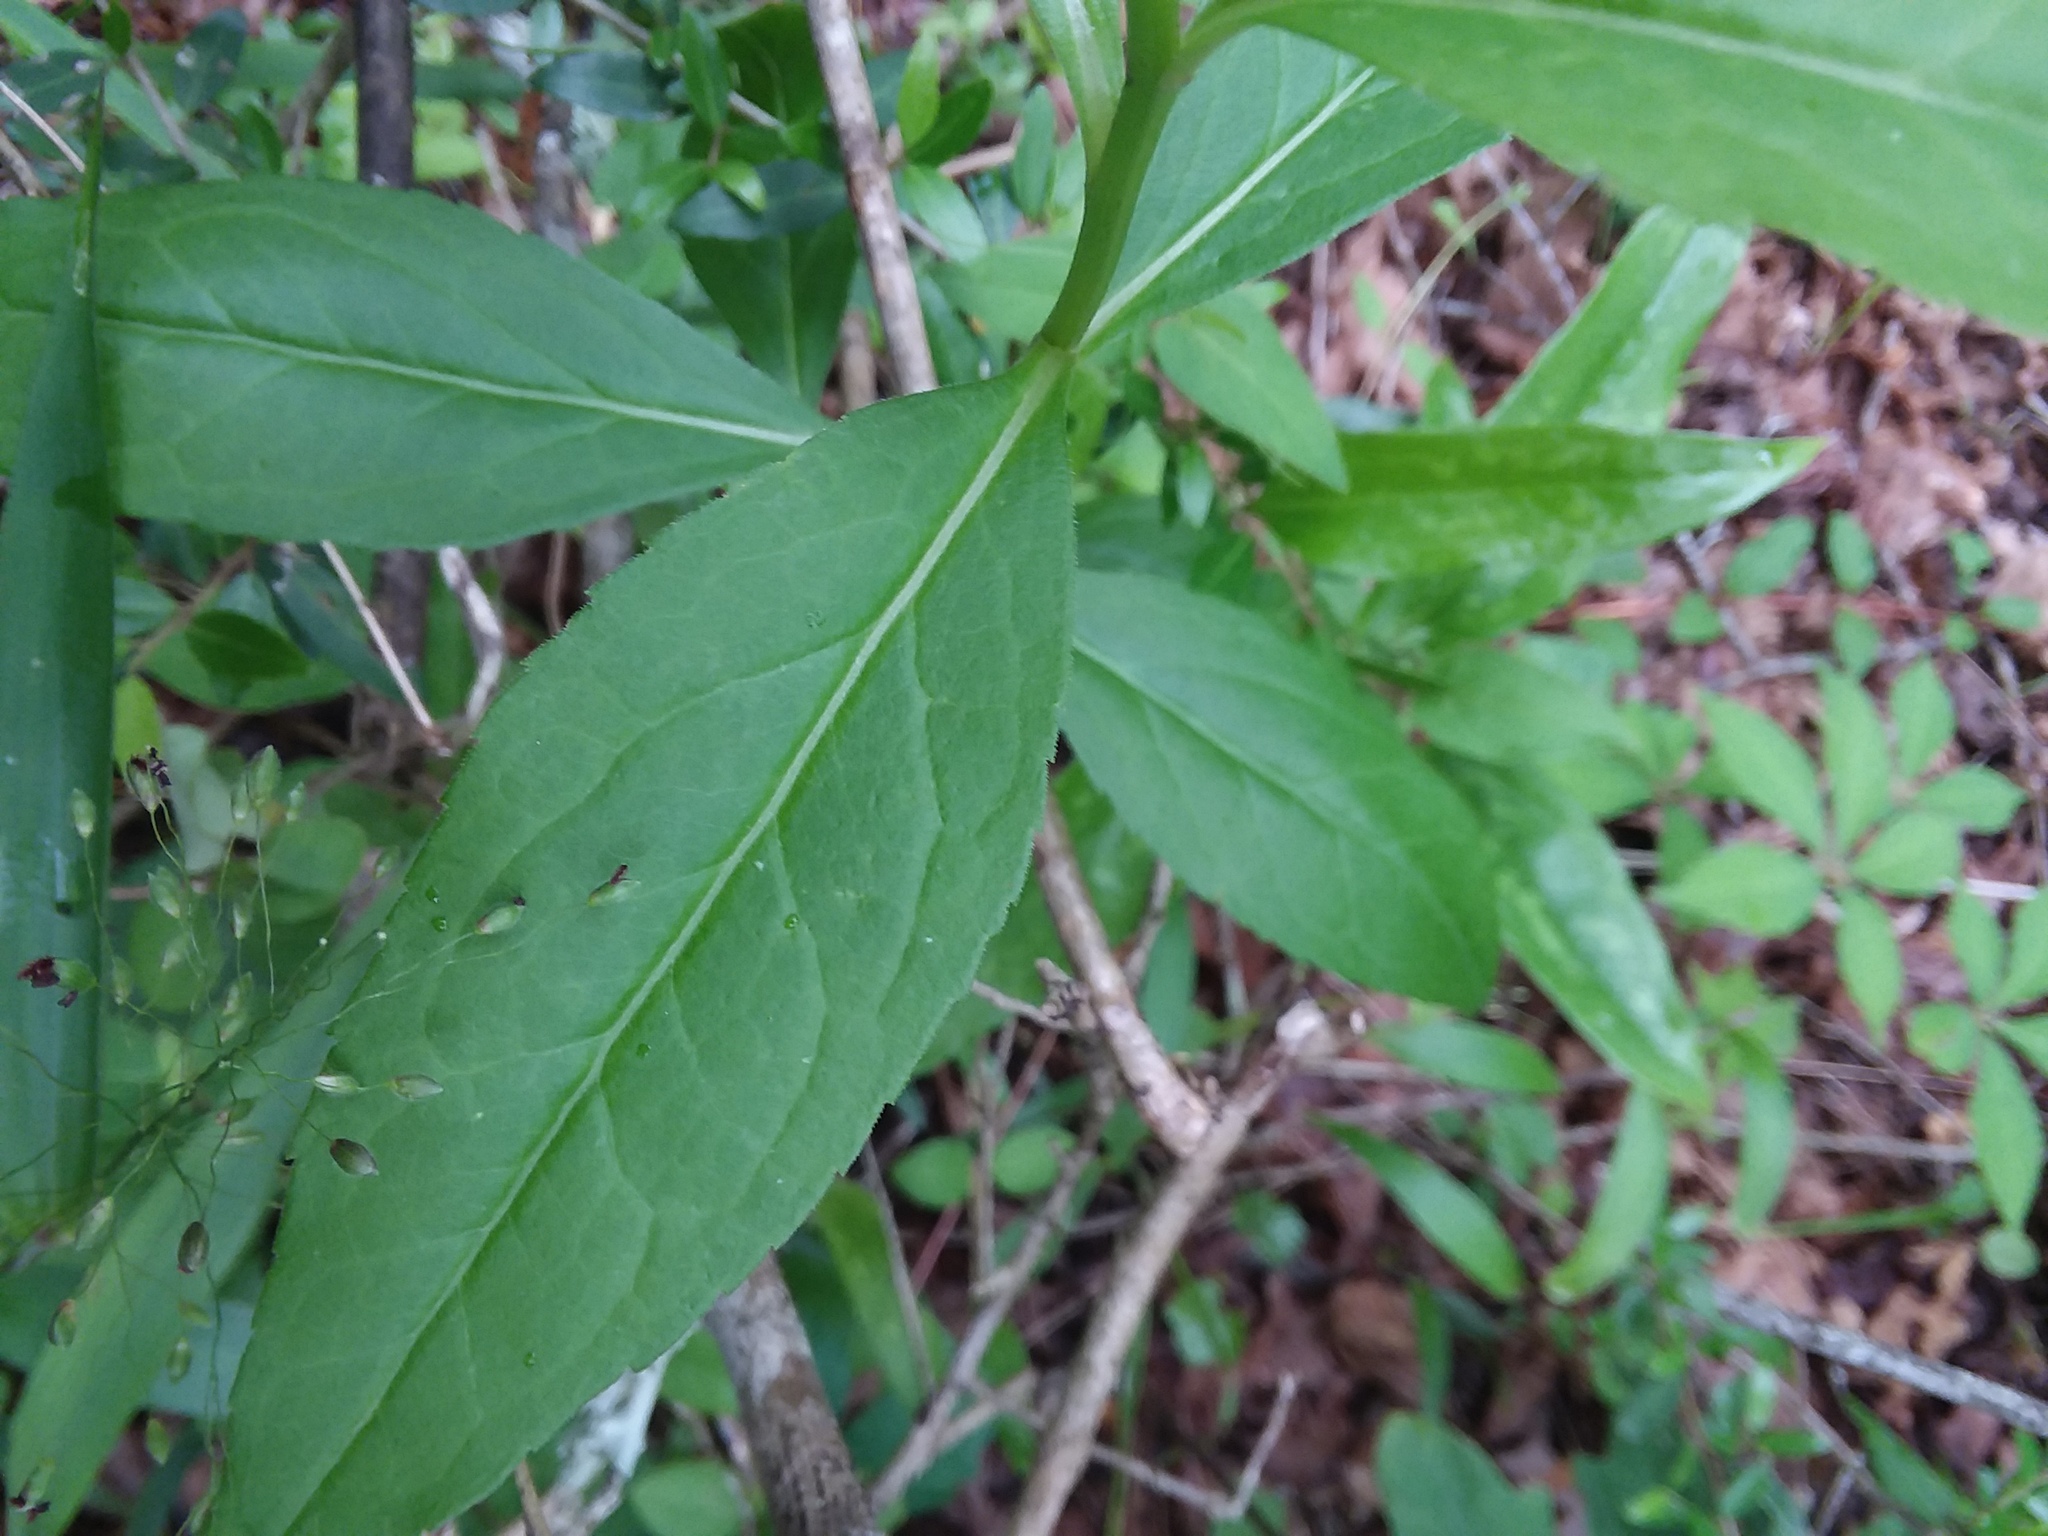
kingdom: Plantae
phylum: Tracheophyta
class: Magnoliopsida
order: Asterales
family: Asteraceae
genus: Solidago
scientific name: Solidago boottii
